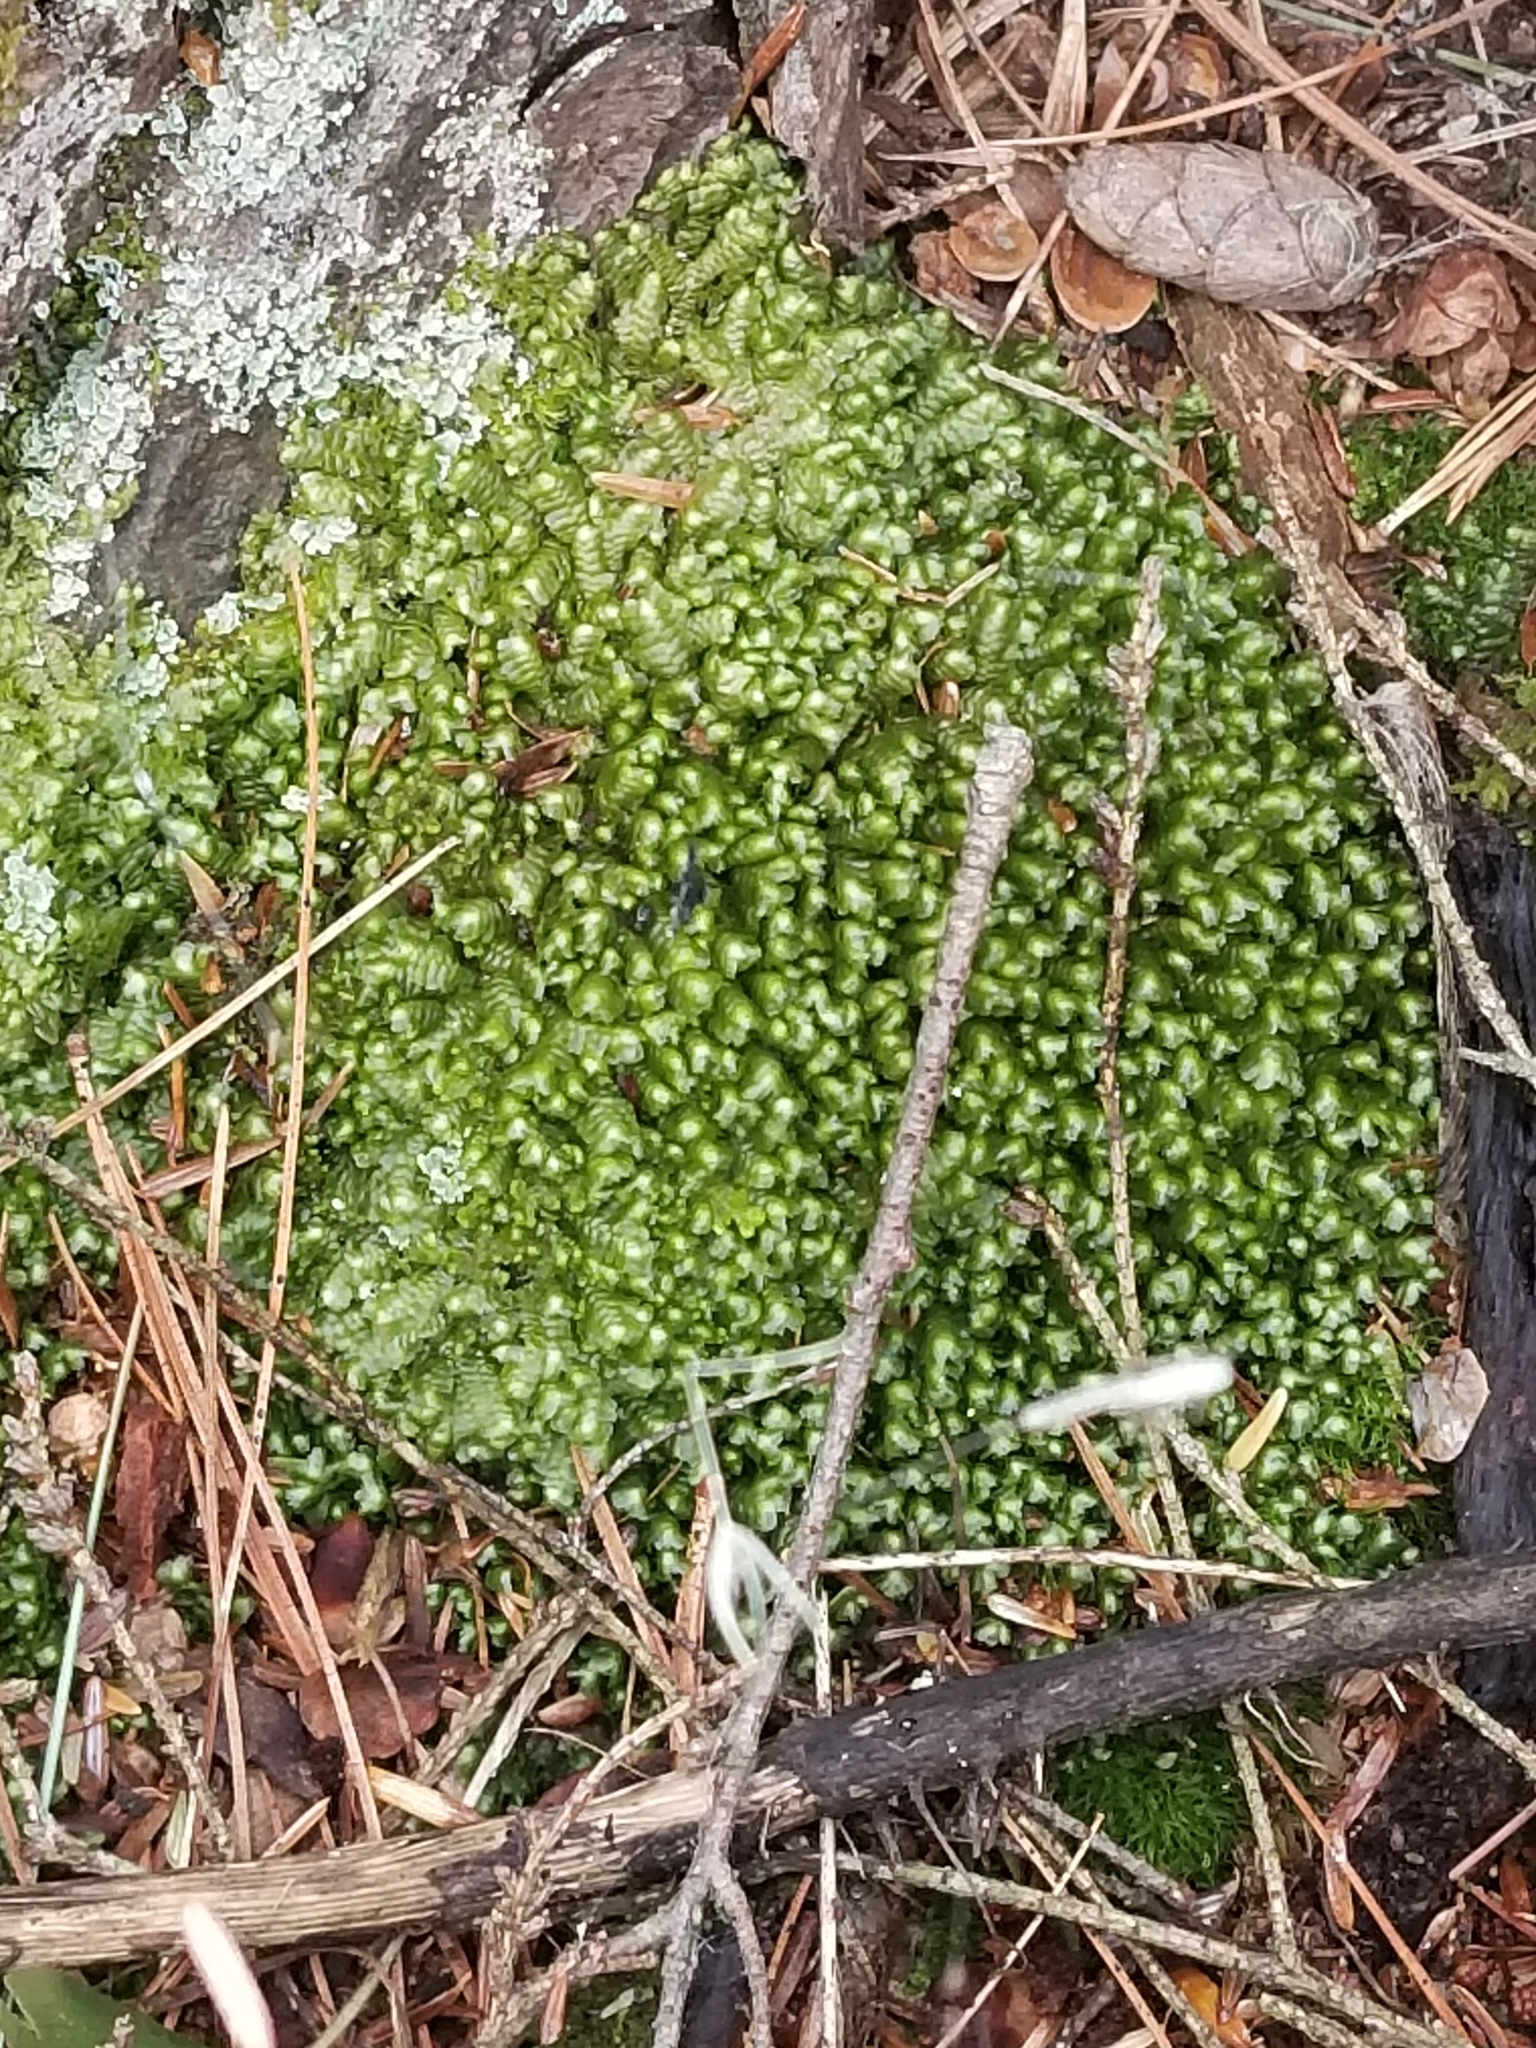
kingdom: Plantae
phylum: Marchantiophyta
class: Jungermanniopsida
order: Jungermanniales
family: Lepidoziaceae
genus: Bazzania
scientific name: Bazzania trilobata
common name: Three-lobed whipwort
